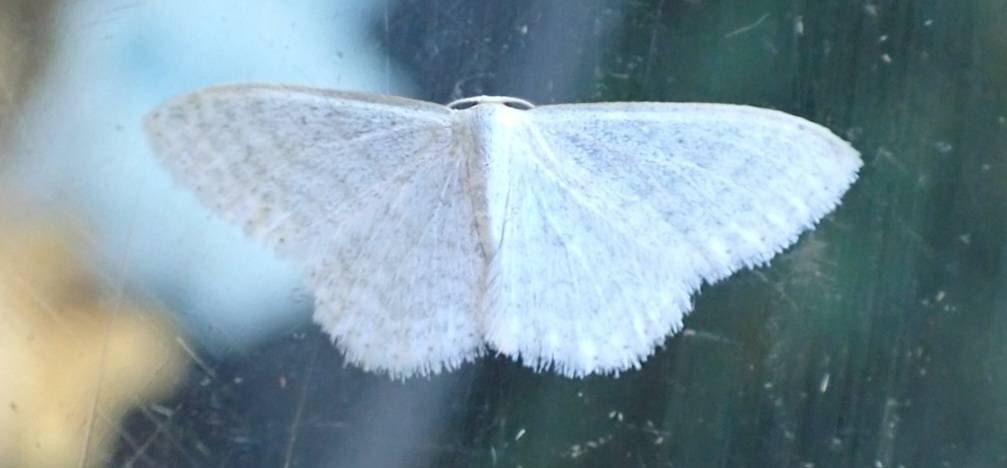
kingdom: Animalia
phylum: Arthropoda
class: Insecta
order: Lepidoptera
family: Geometridae
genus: Idaea
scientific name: Idaea subsericeata
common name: Satin wave
